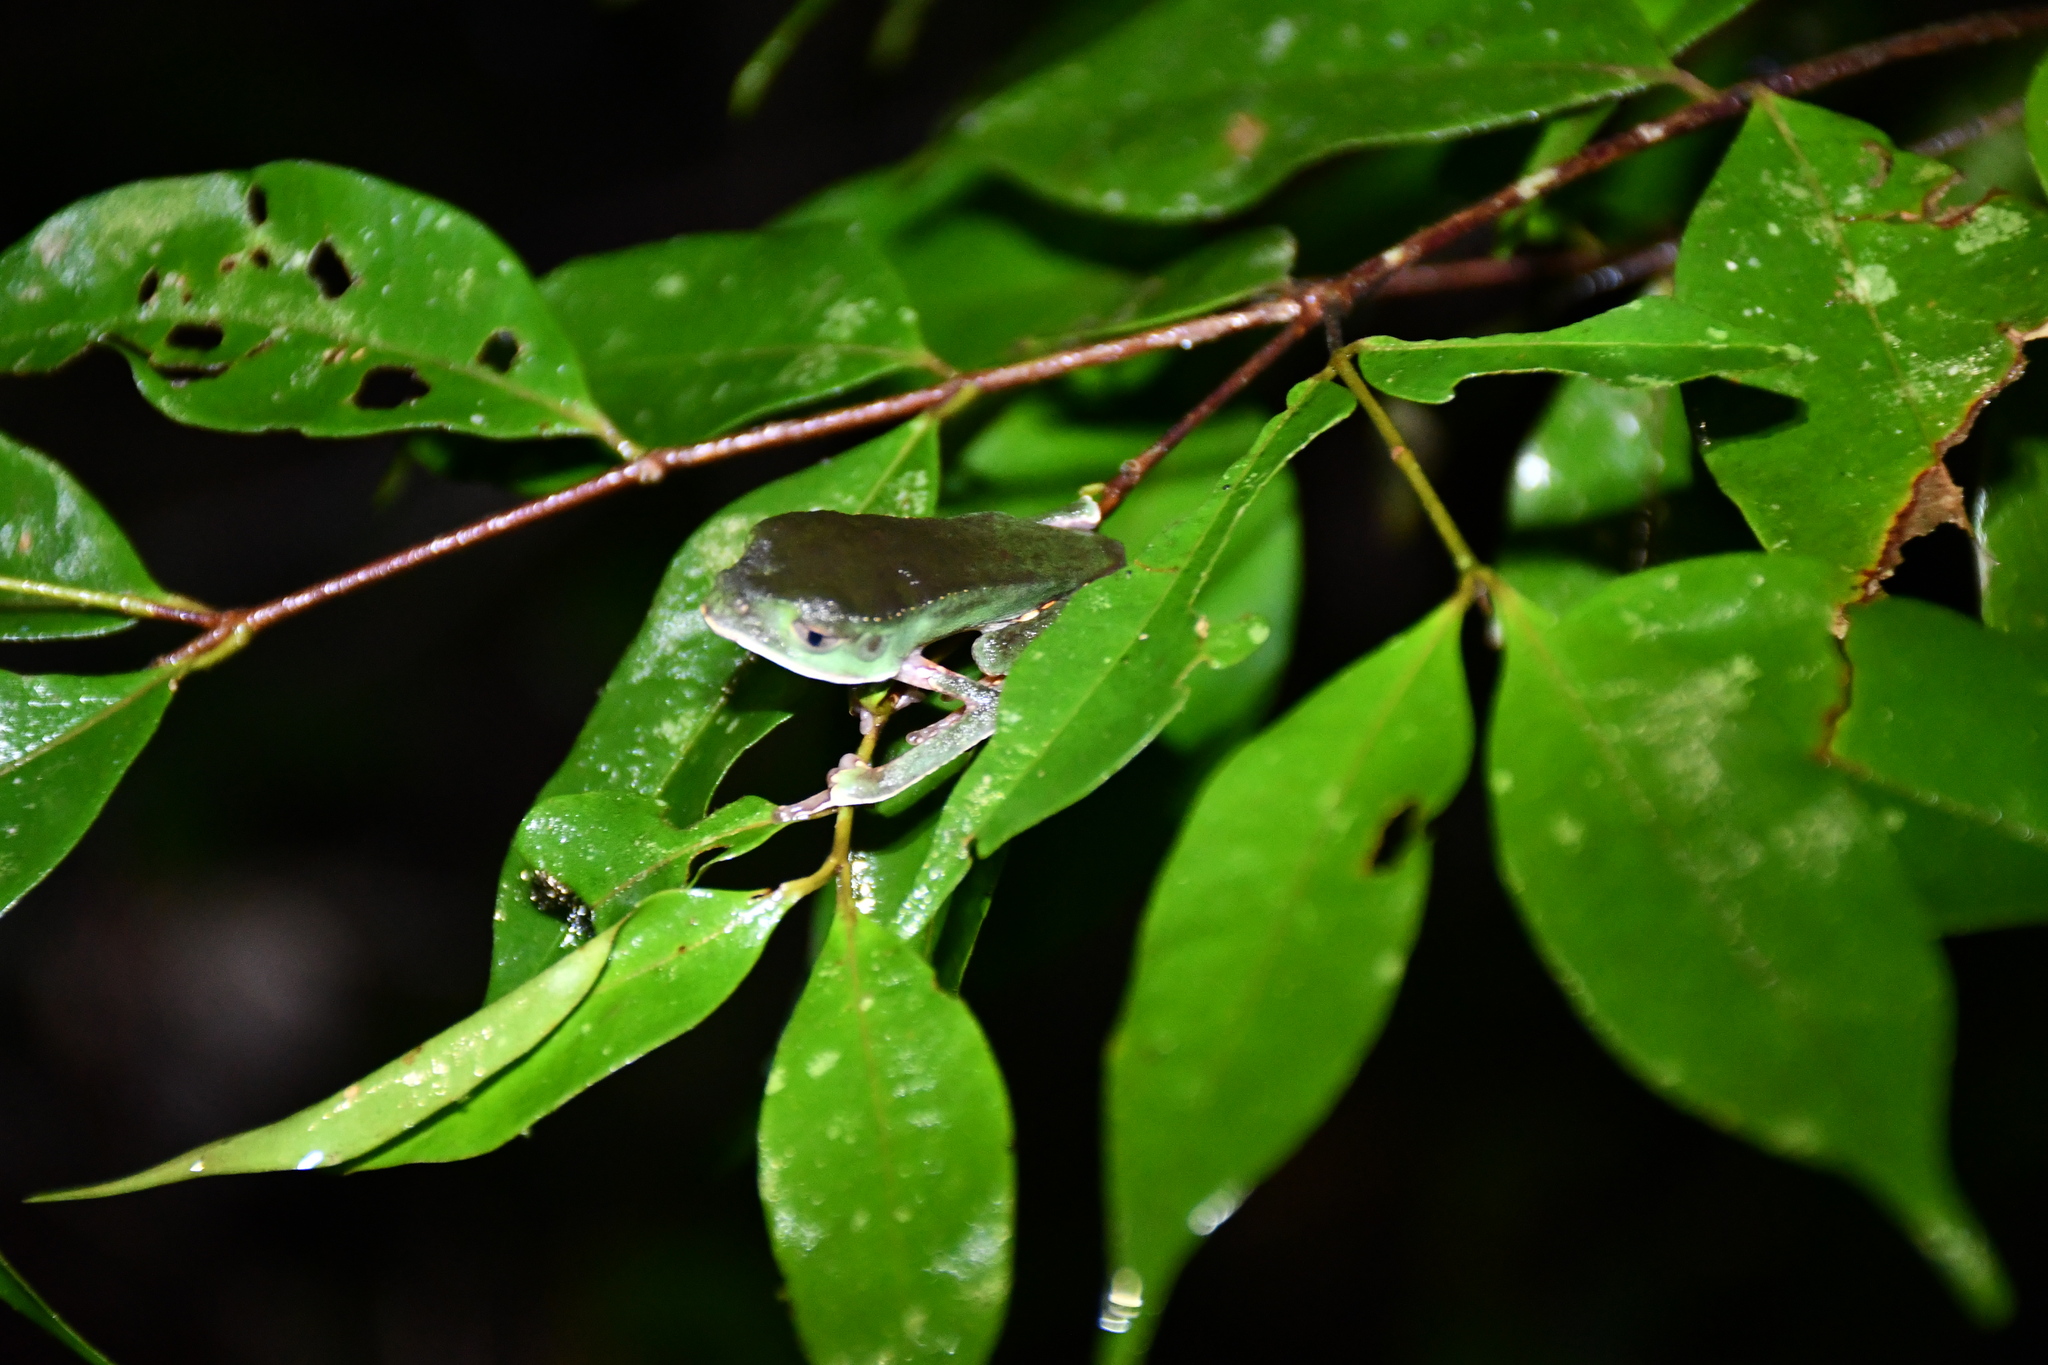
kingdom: Animalia
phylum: Chordata
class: Amphibia
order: Anura
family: Phyllomedusidae
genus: Phyllomedusa
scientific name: Phyllomedusa vaillantii
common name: White-lined leaf frog
